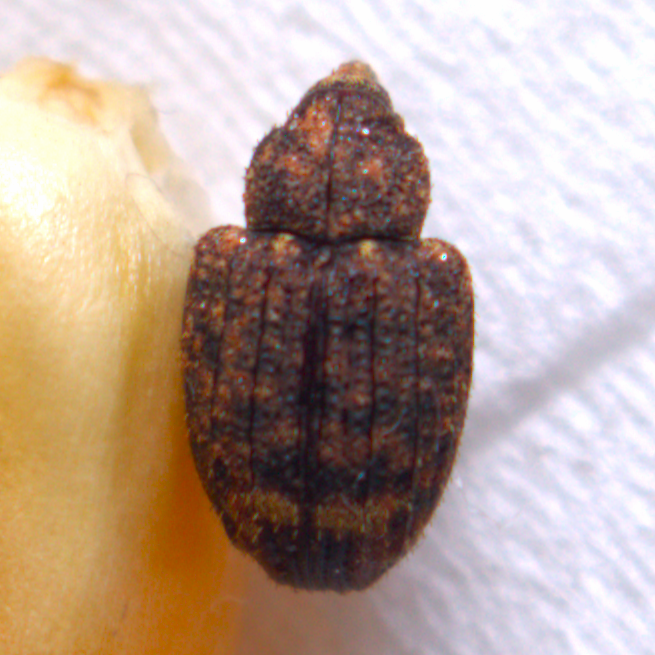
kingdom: Animalia
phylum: Arthropoda
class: Insecta
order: Coleoptera
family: Curculionidae
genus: Conotrachelus
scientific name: Conotrachelus posticatus
